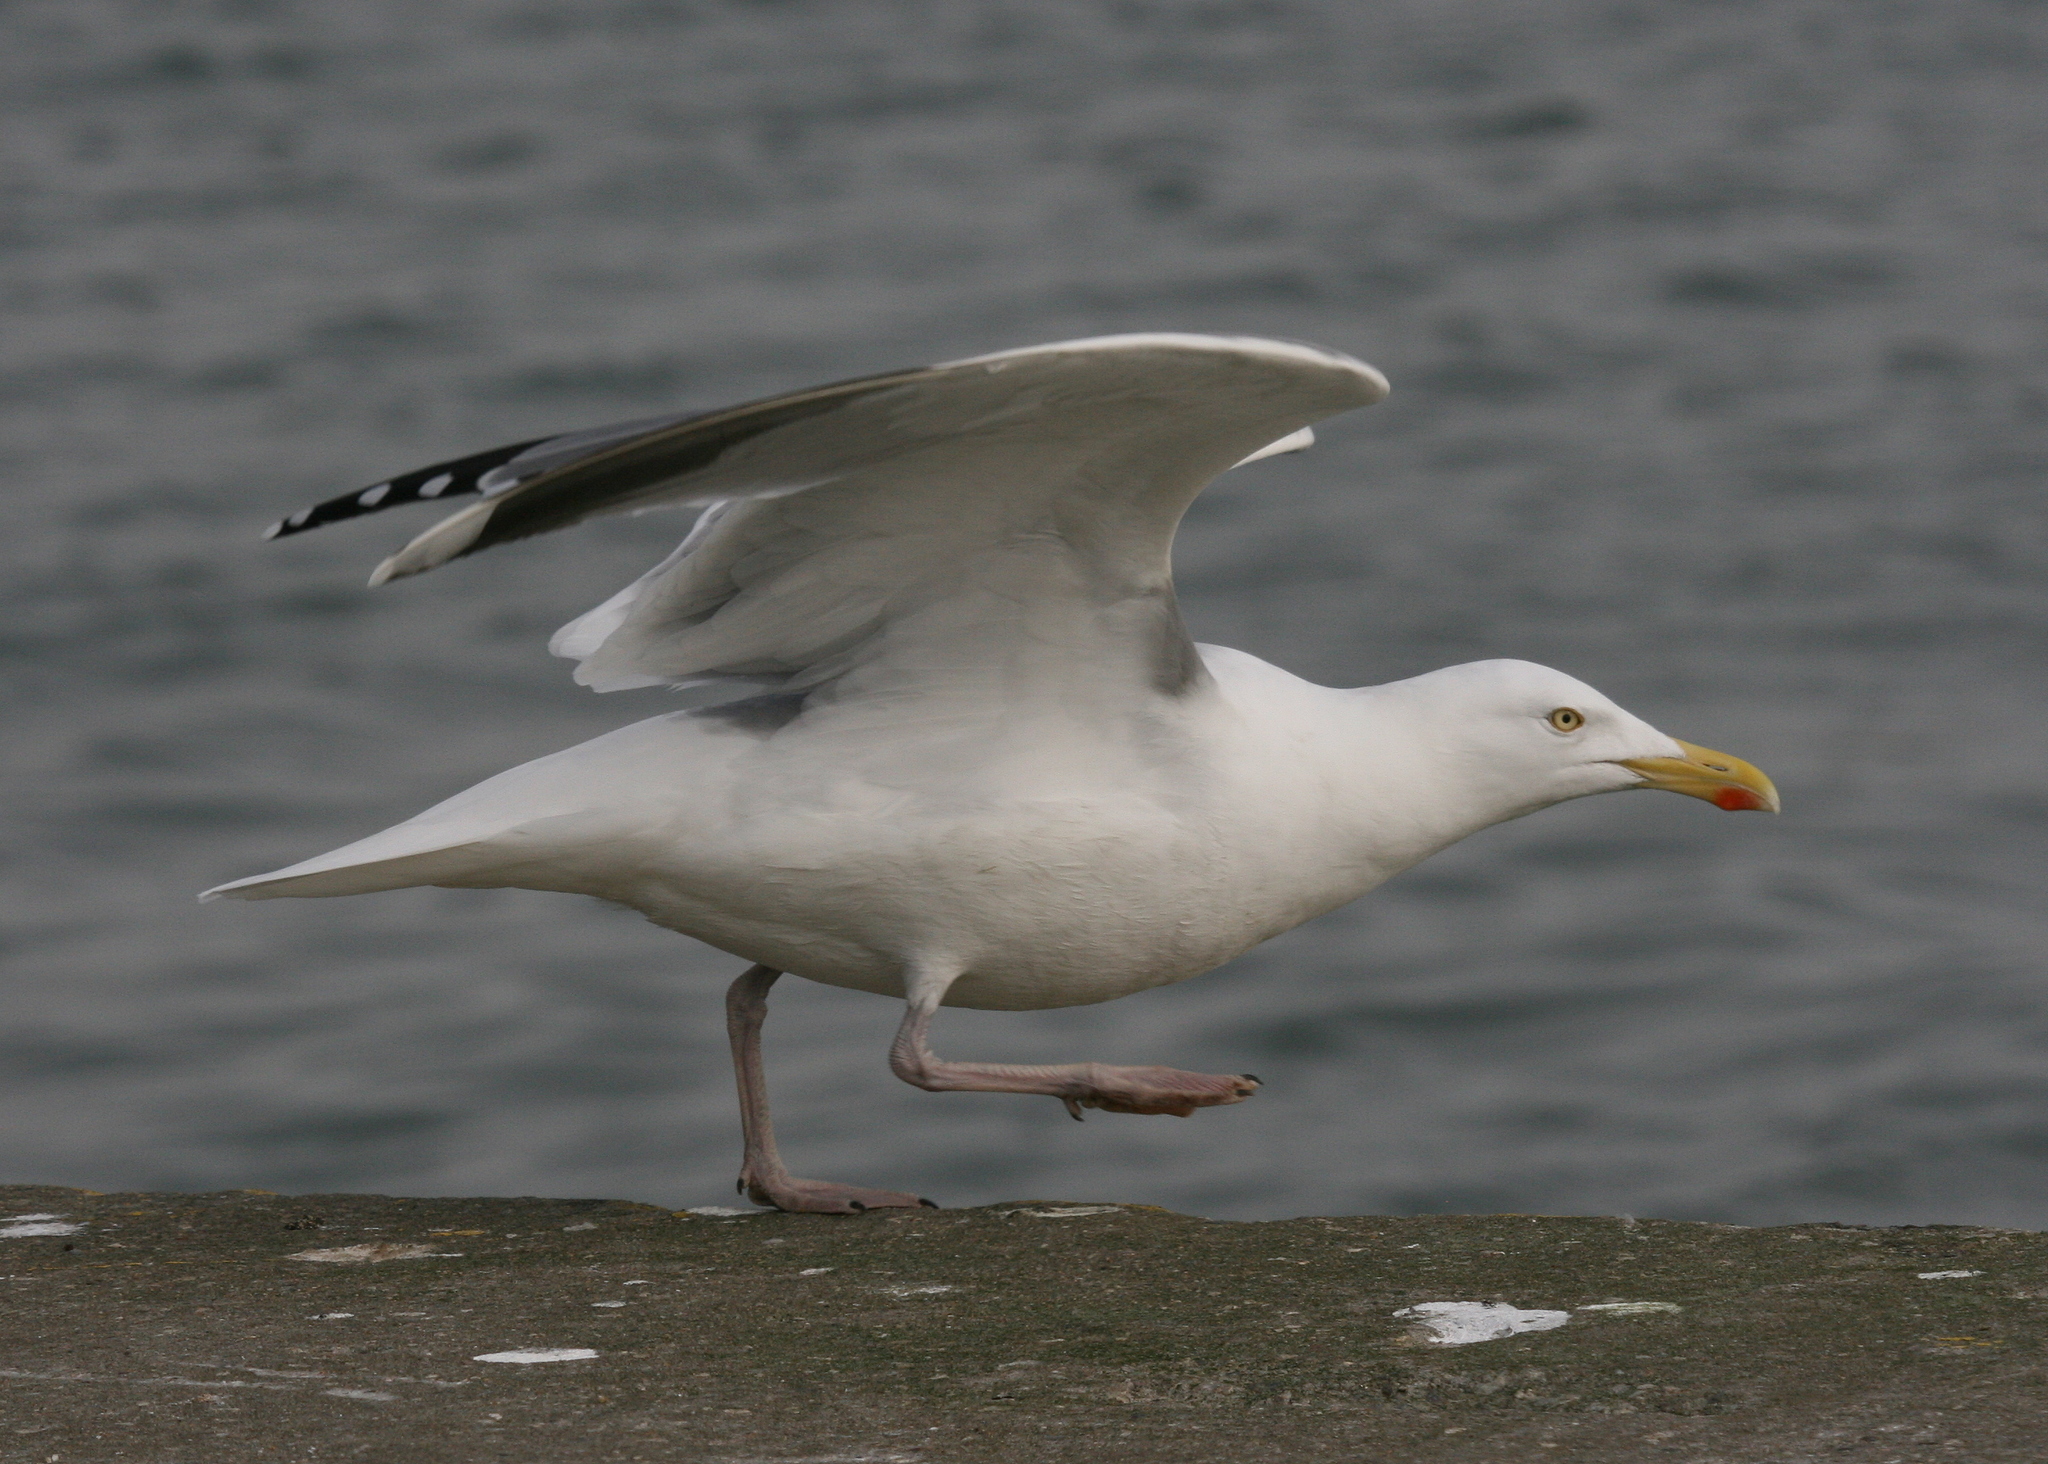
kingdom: Animalia
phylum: Chordata
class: Aves
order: Charadriiformes
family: Laridae
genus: Larus
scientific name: Larus argentatus
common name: Herring gull
